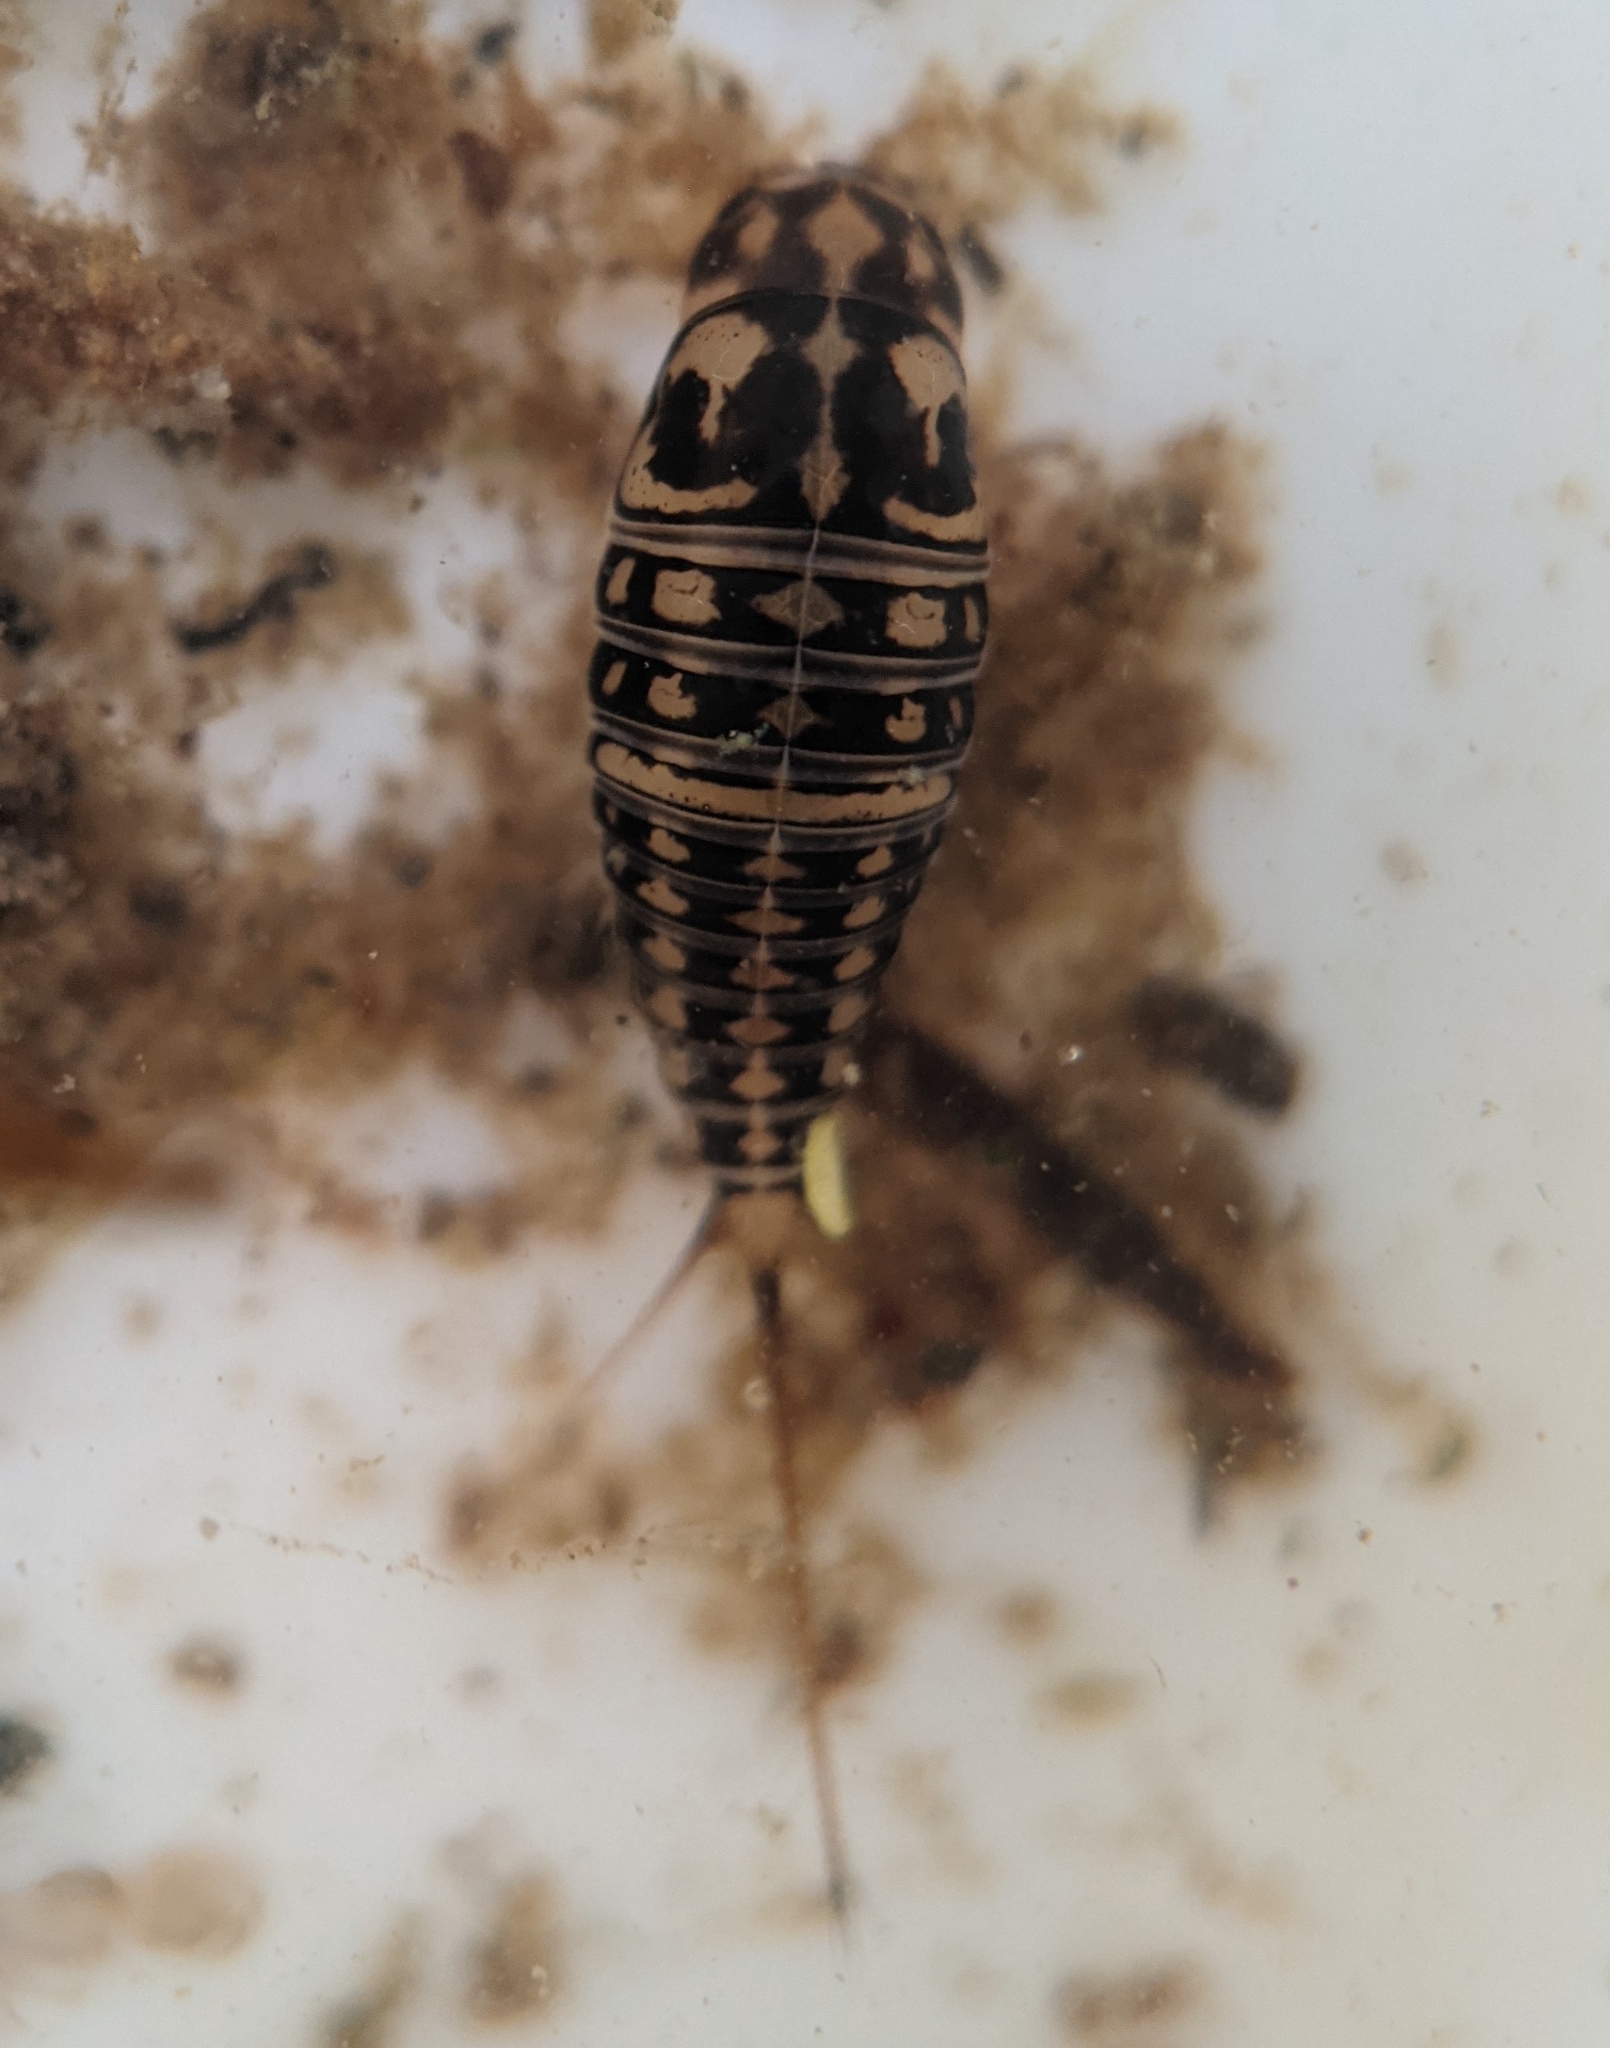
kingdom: Animalia
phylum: Arthropoda
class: Insecta
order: Coleoptera
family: Hygrobiidae
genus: Hygrobia
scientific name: Hygrobia hermanni
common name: Screech beetle
